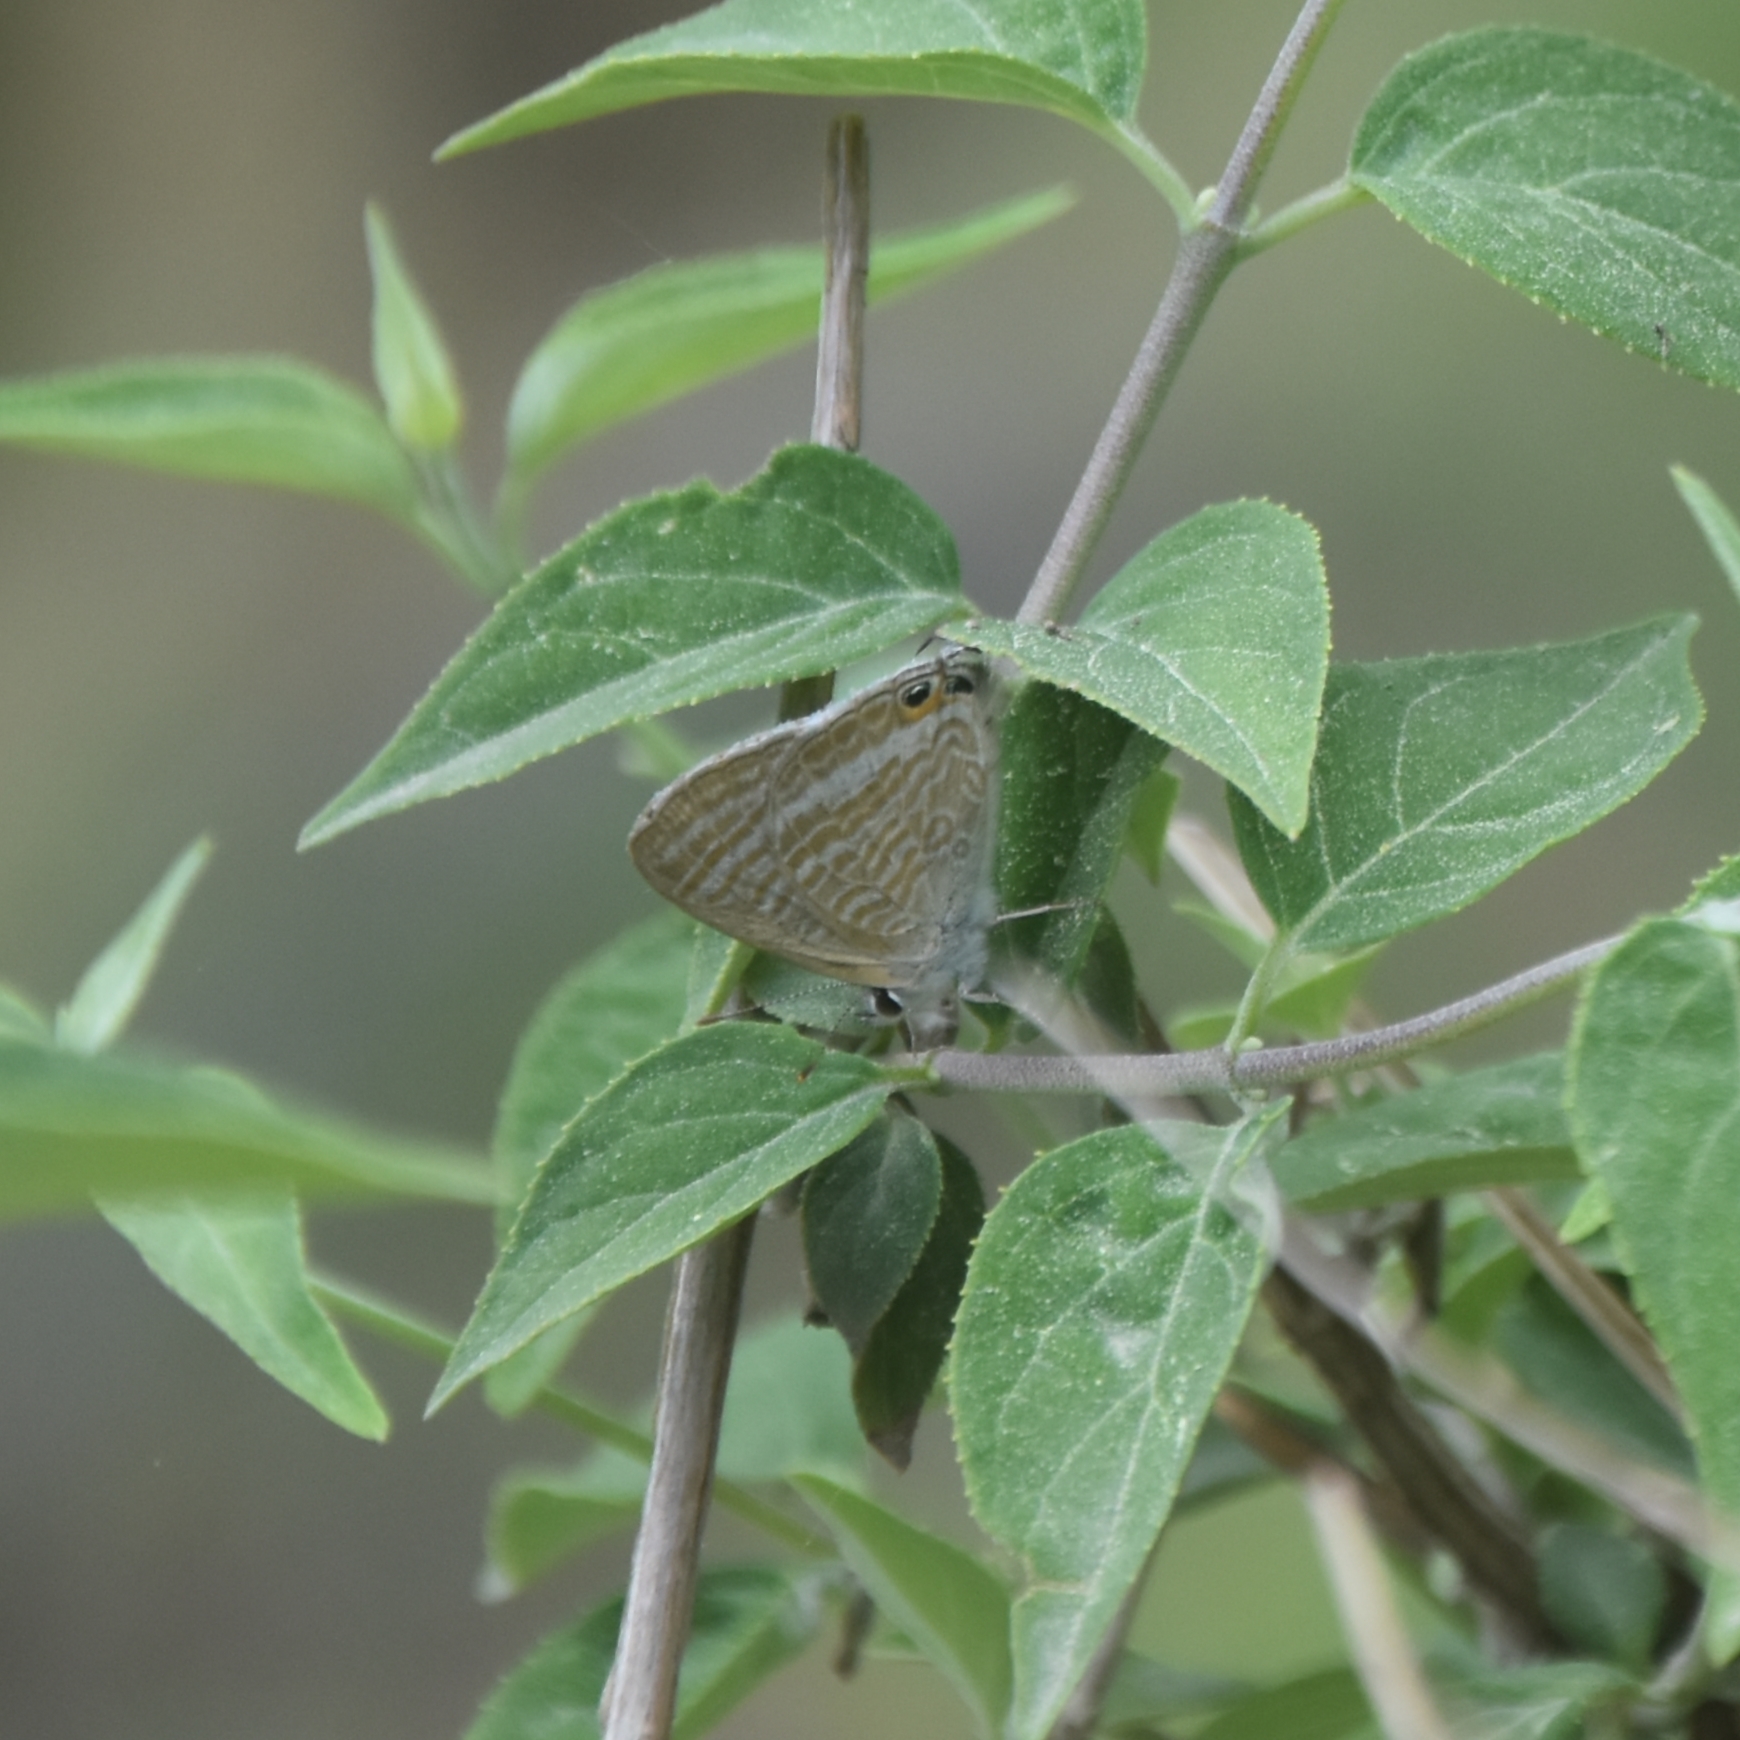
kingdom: Animalia
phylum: Arthropoda
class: Insecta
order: Lepidoptera
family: Lycaenidae
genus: Lampides
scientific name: Lampides boeticus
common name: Long-tailed blue
